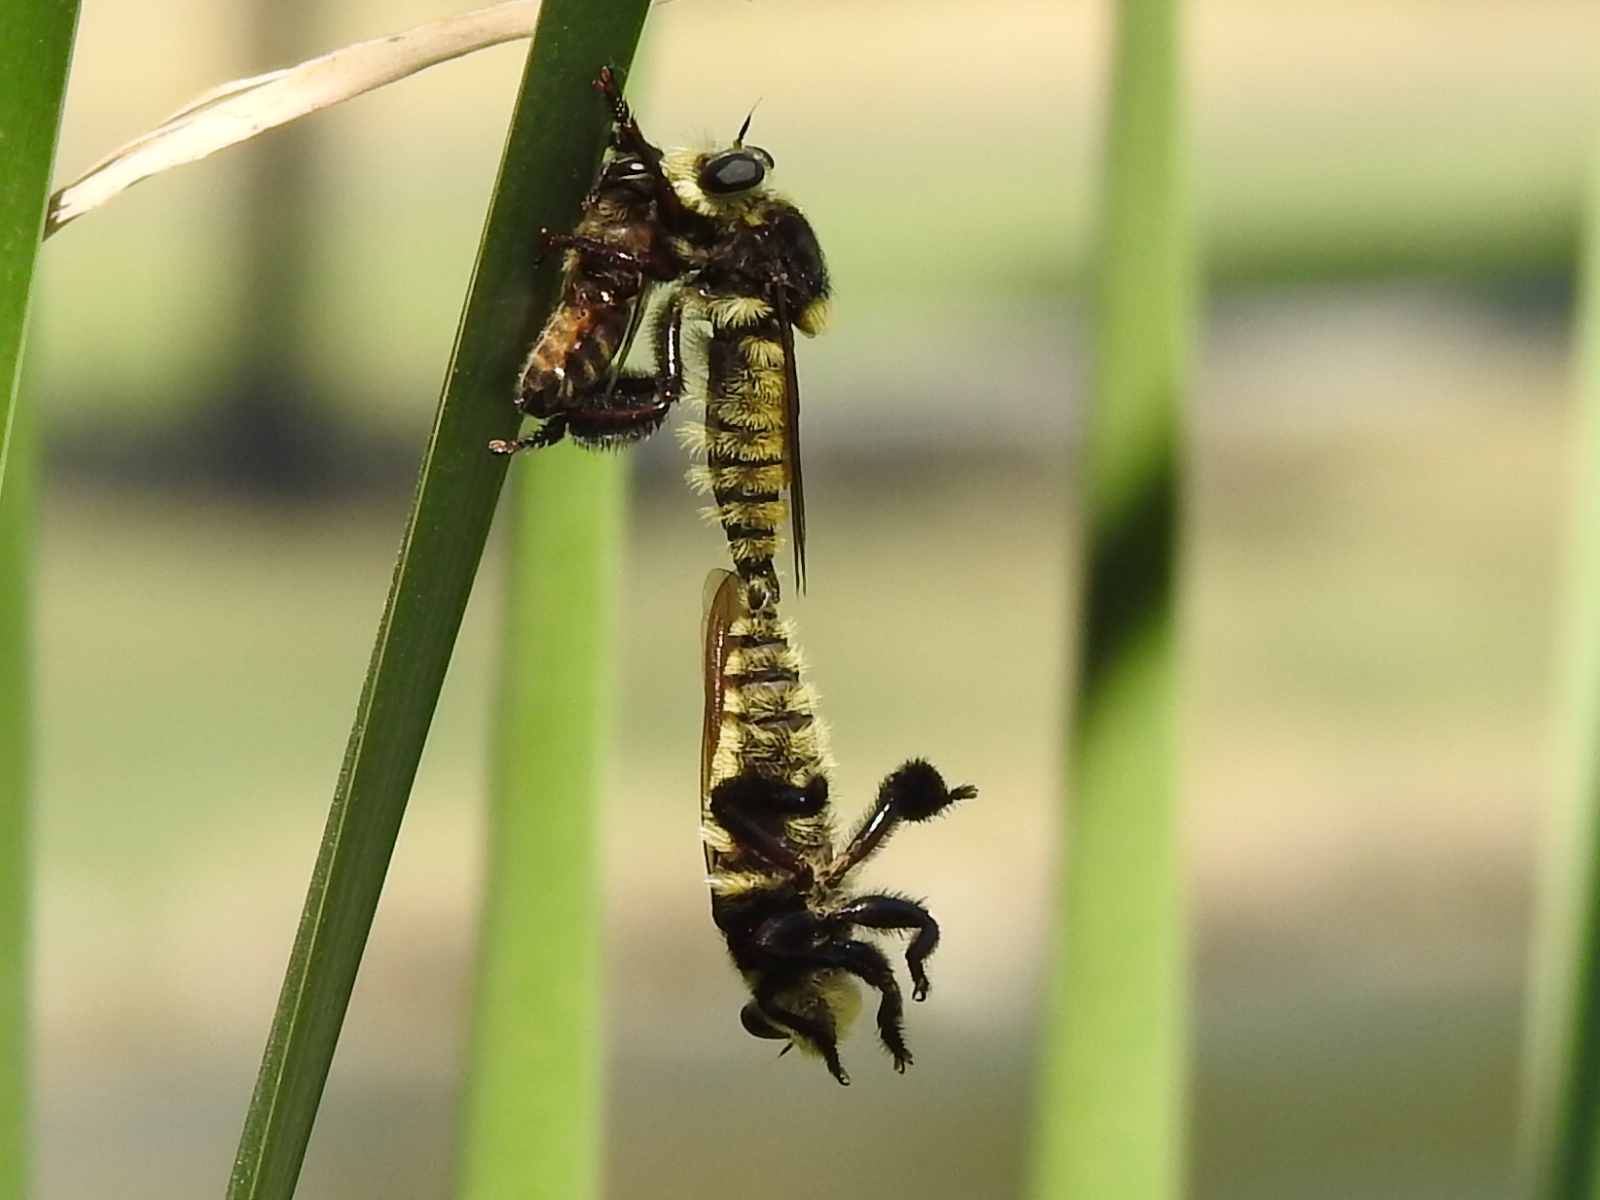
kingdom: Animalia
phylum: Arthropoda
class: Insecta
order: Diptera
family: Asilidae
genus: Mallophora
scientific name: Mallophora fautrix
